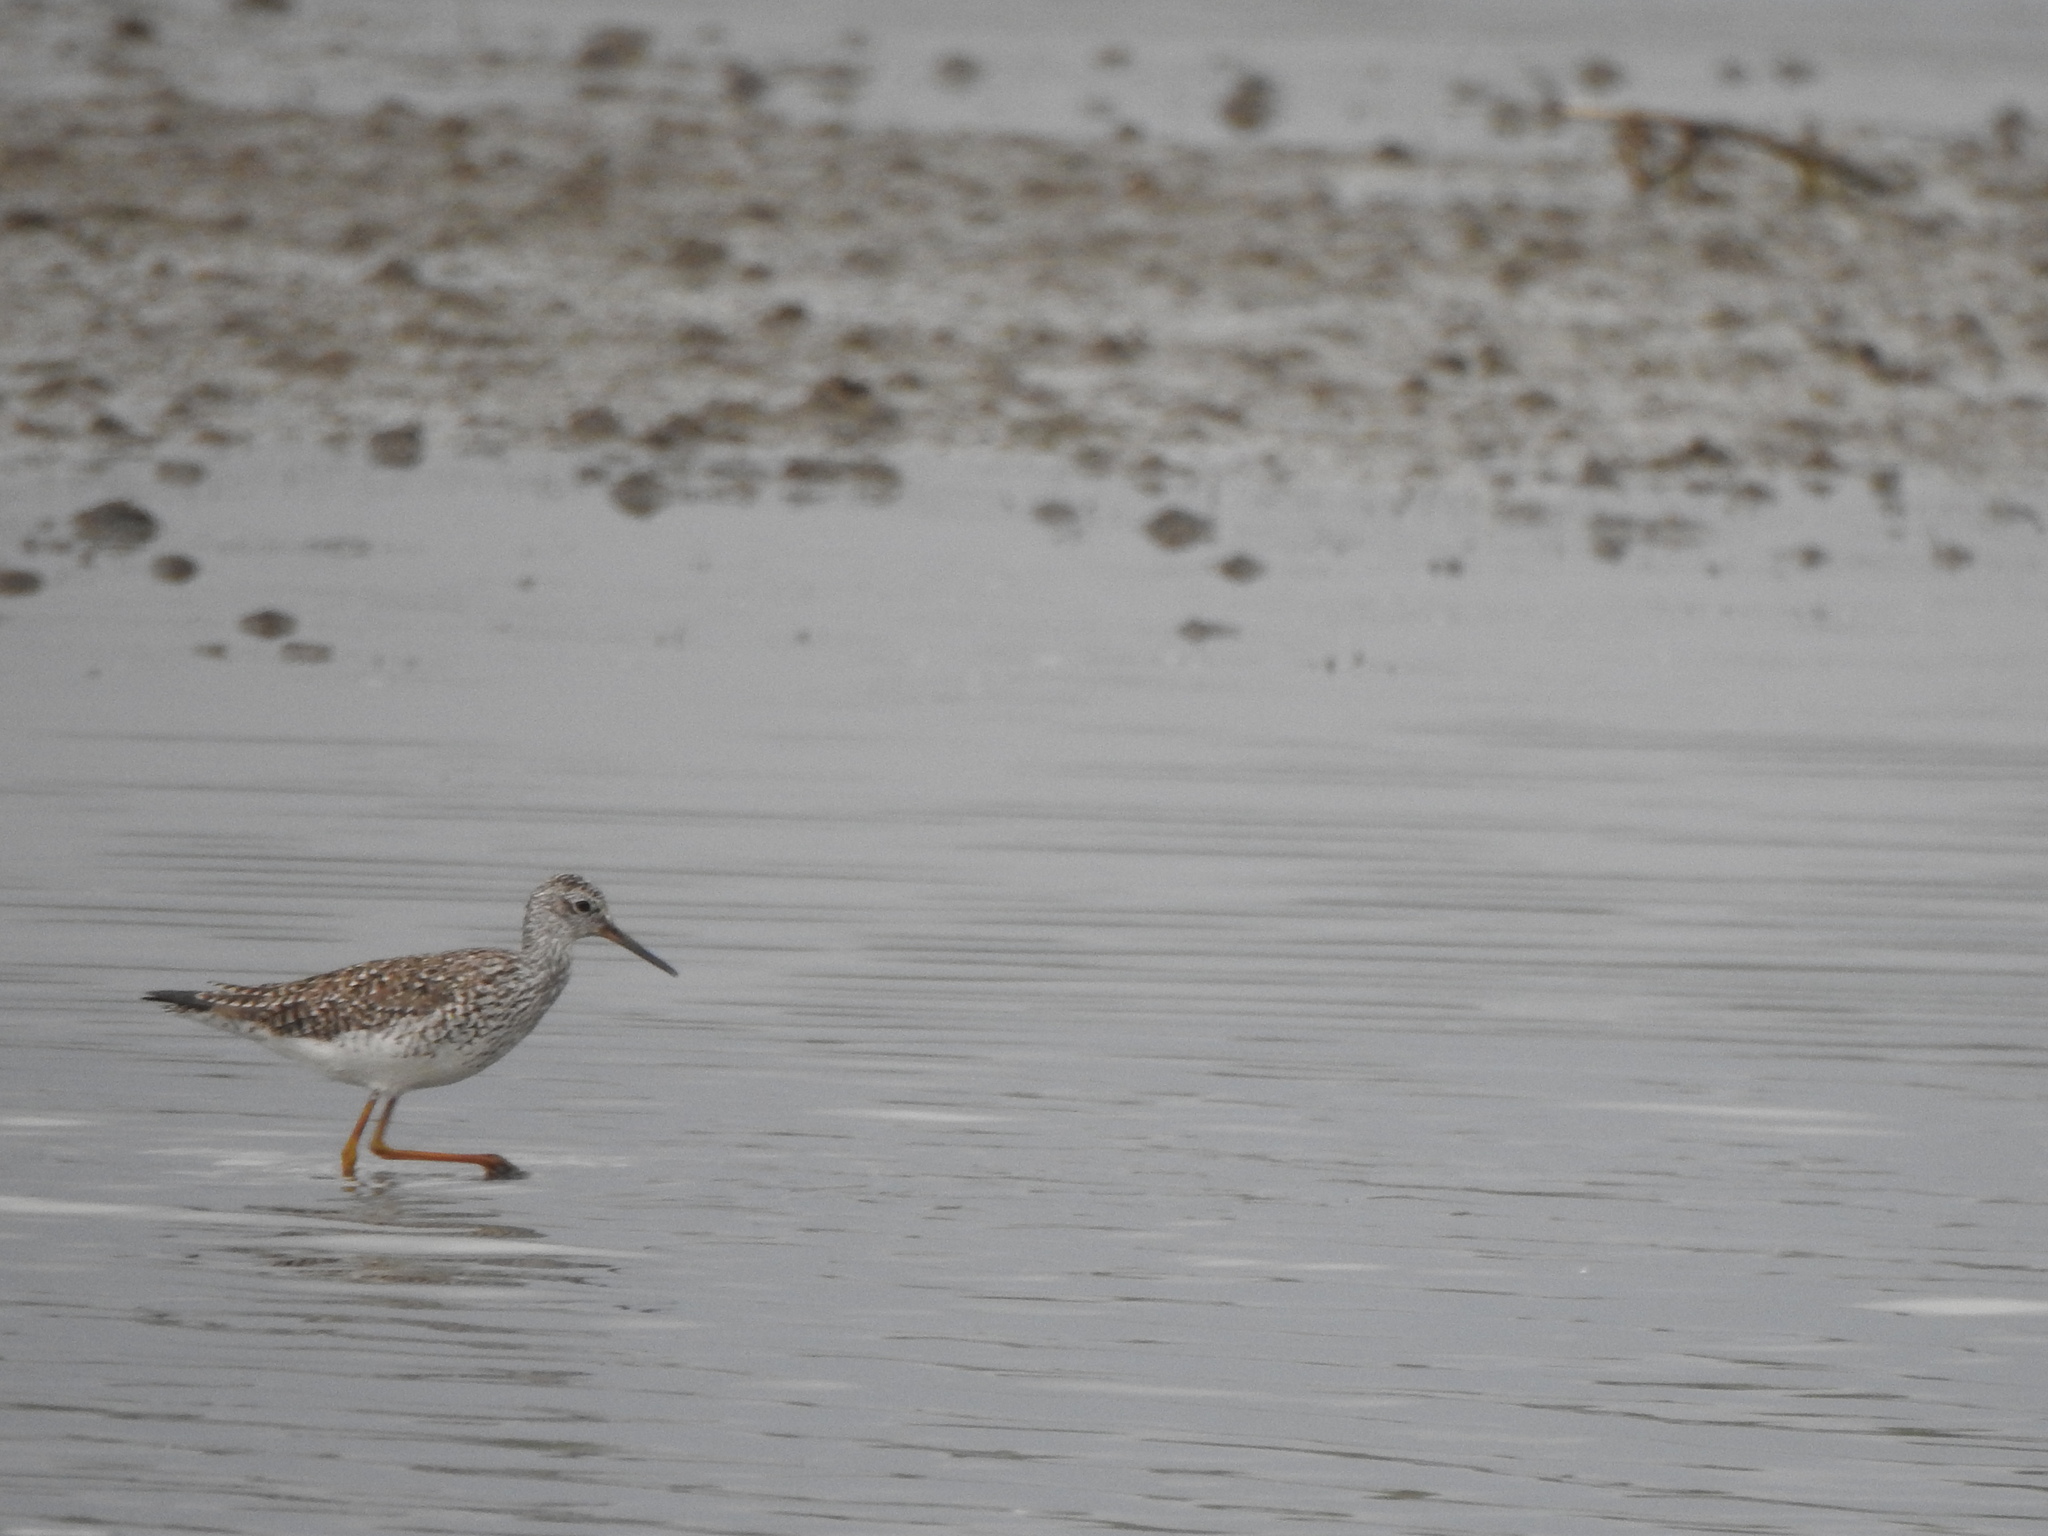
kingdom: Animalia
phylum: Chordata
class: Aves
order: Charadriiformes
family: Scolopacidae
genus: Tringa
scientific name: Tringa flavipes
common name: Lesser yellowlegs
